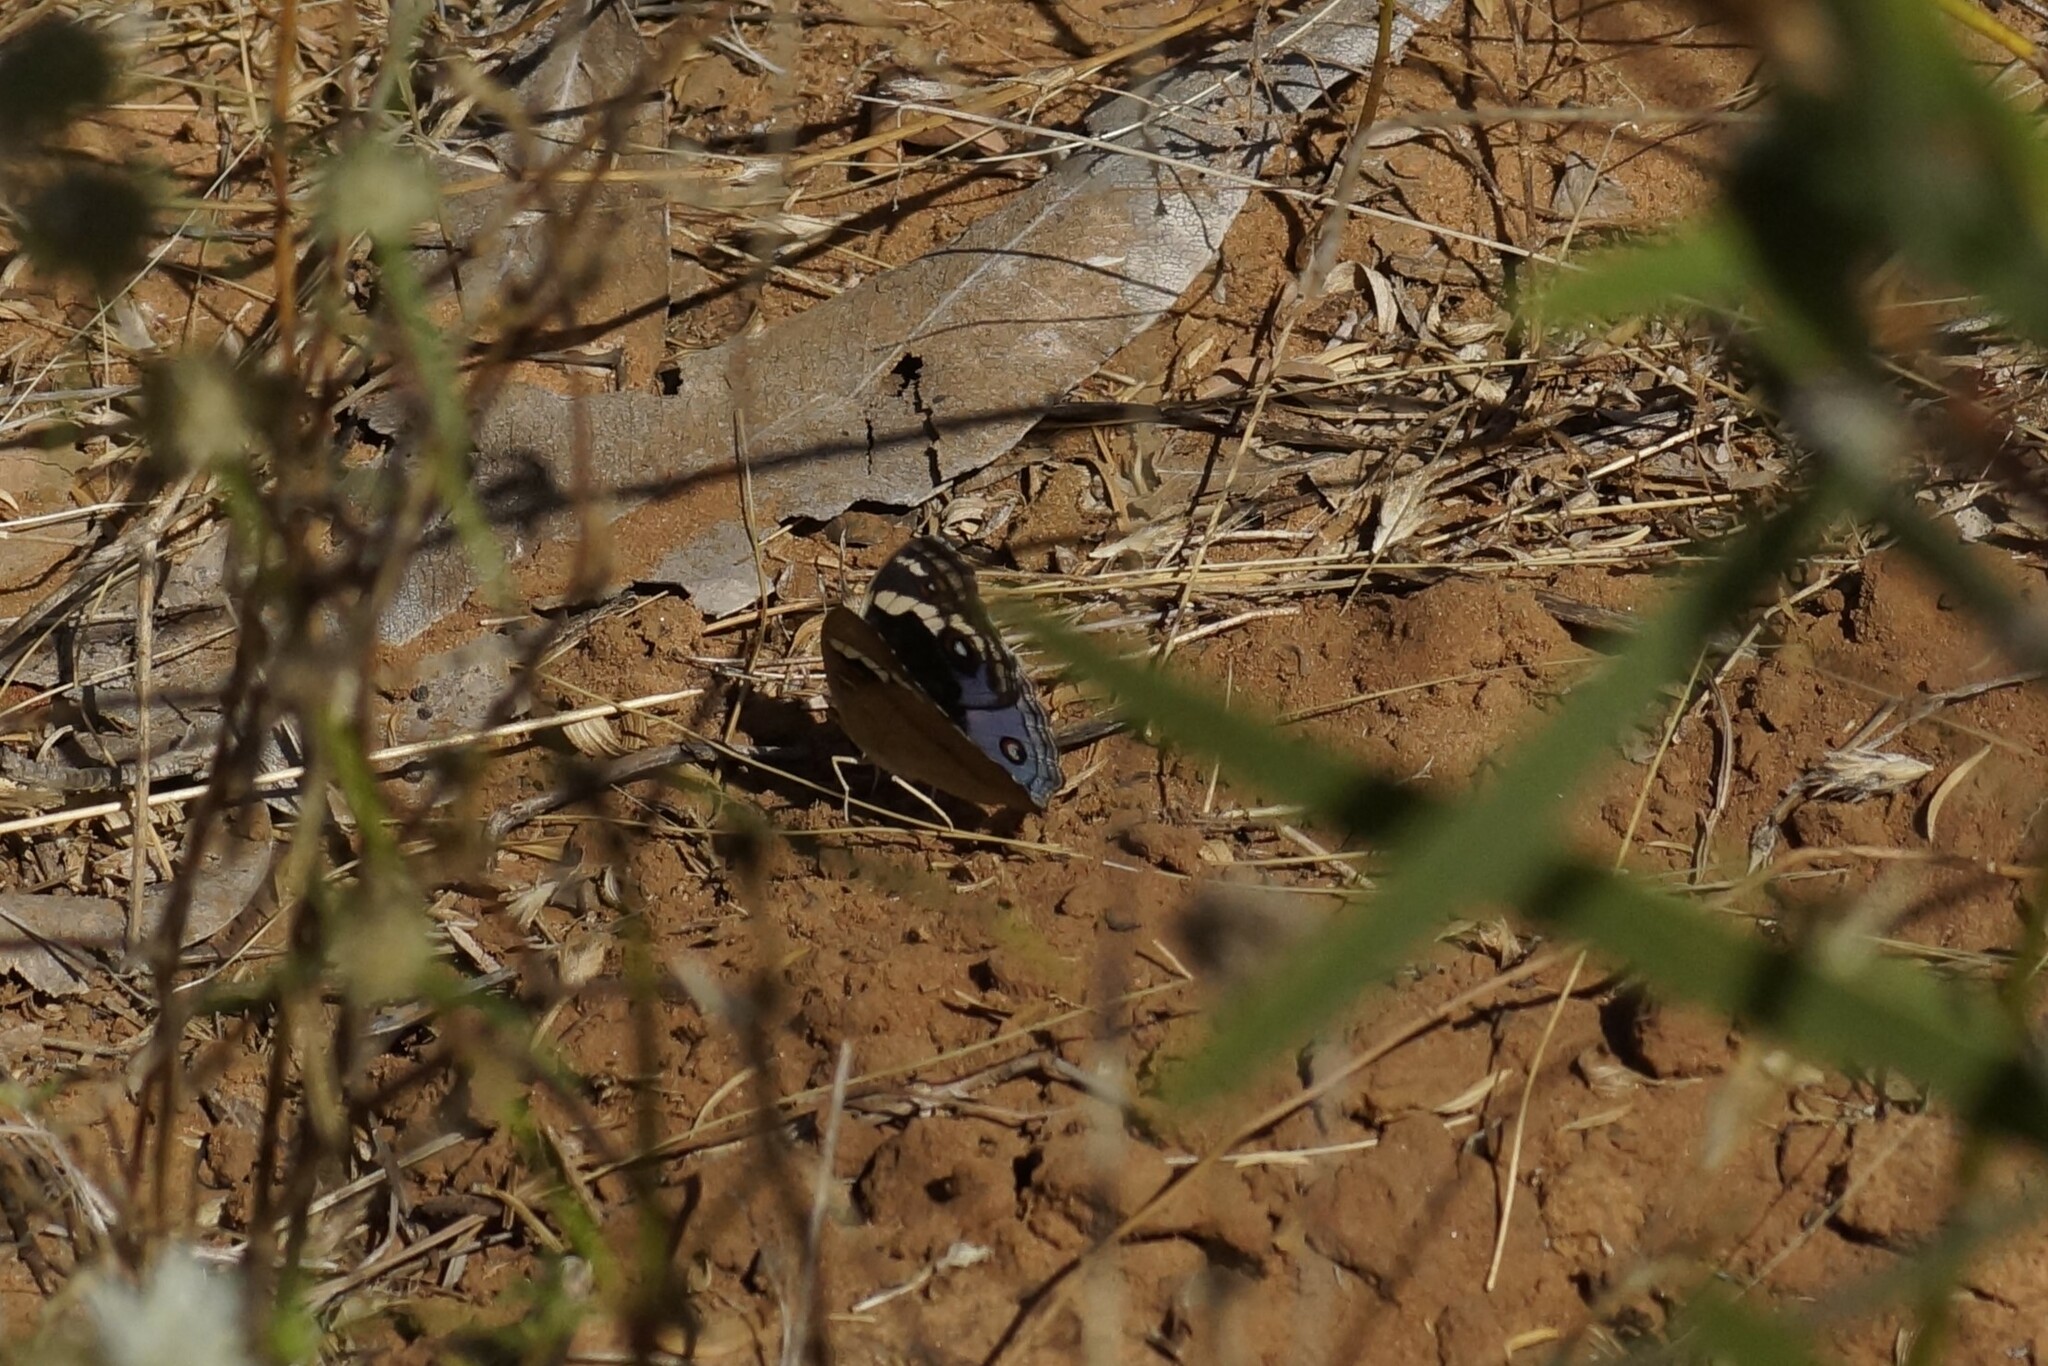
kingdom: Animalia
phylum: Arthropoda
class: Insecta
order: Lepidoptera
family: Nymphalidae
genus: Junonia
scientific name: Junonia orithya
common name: Blue pansy
